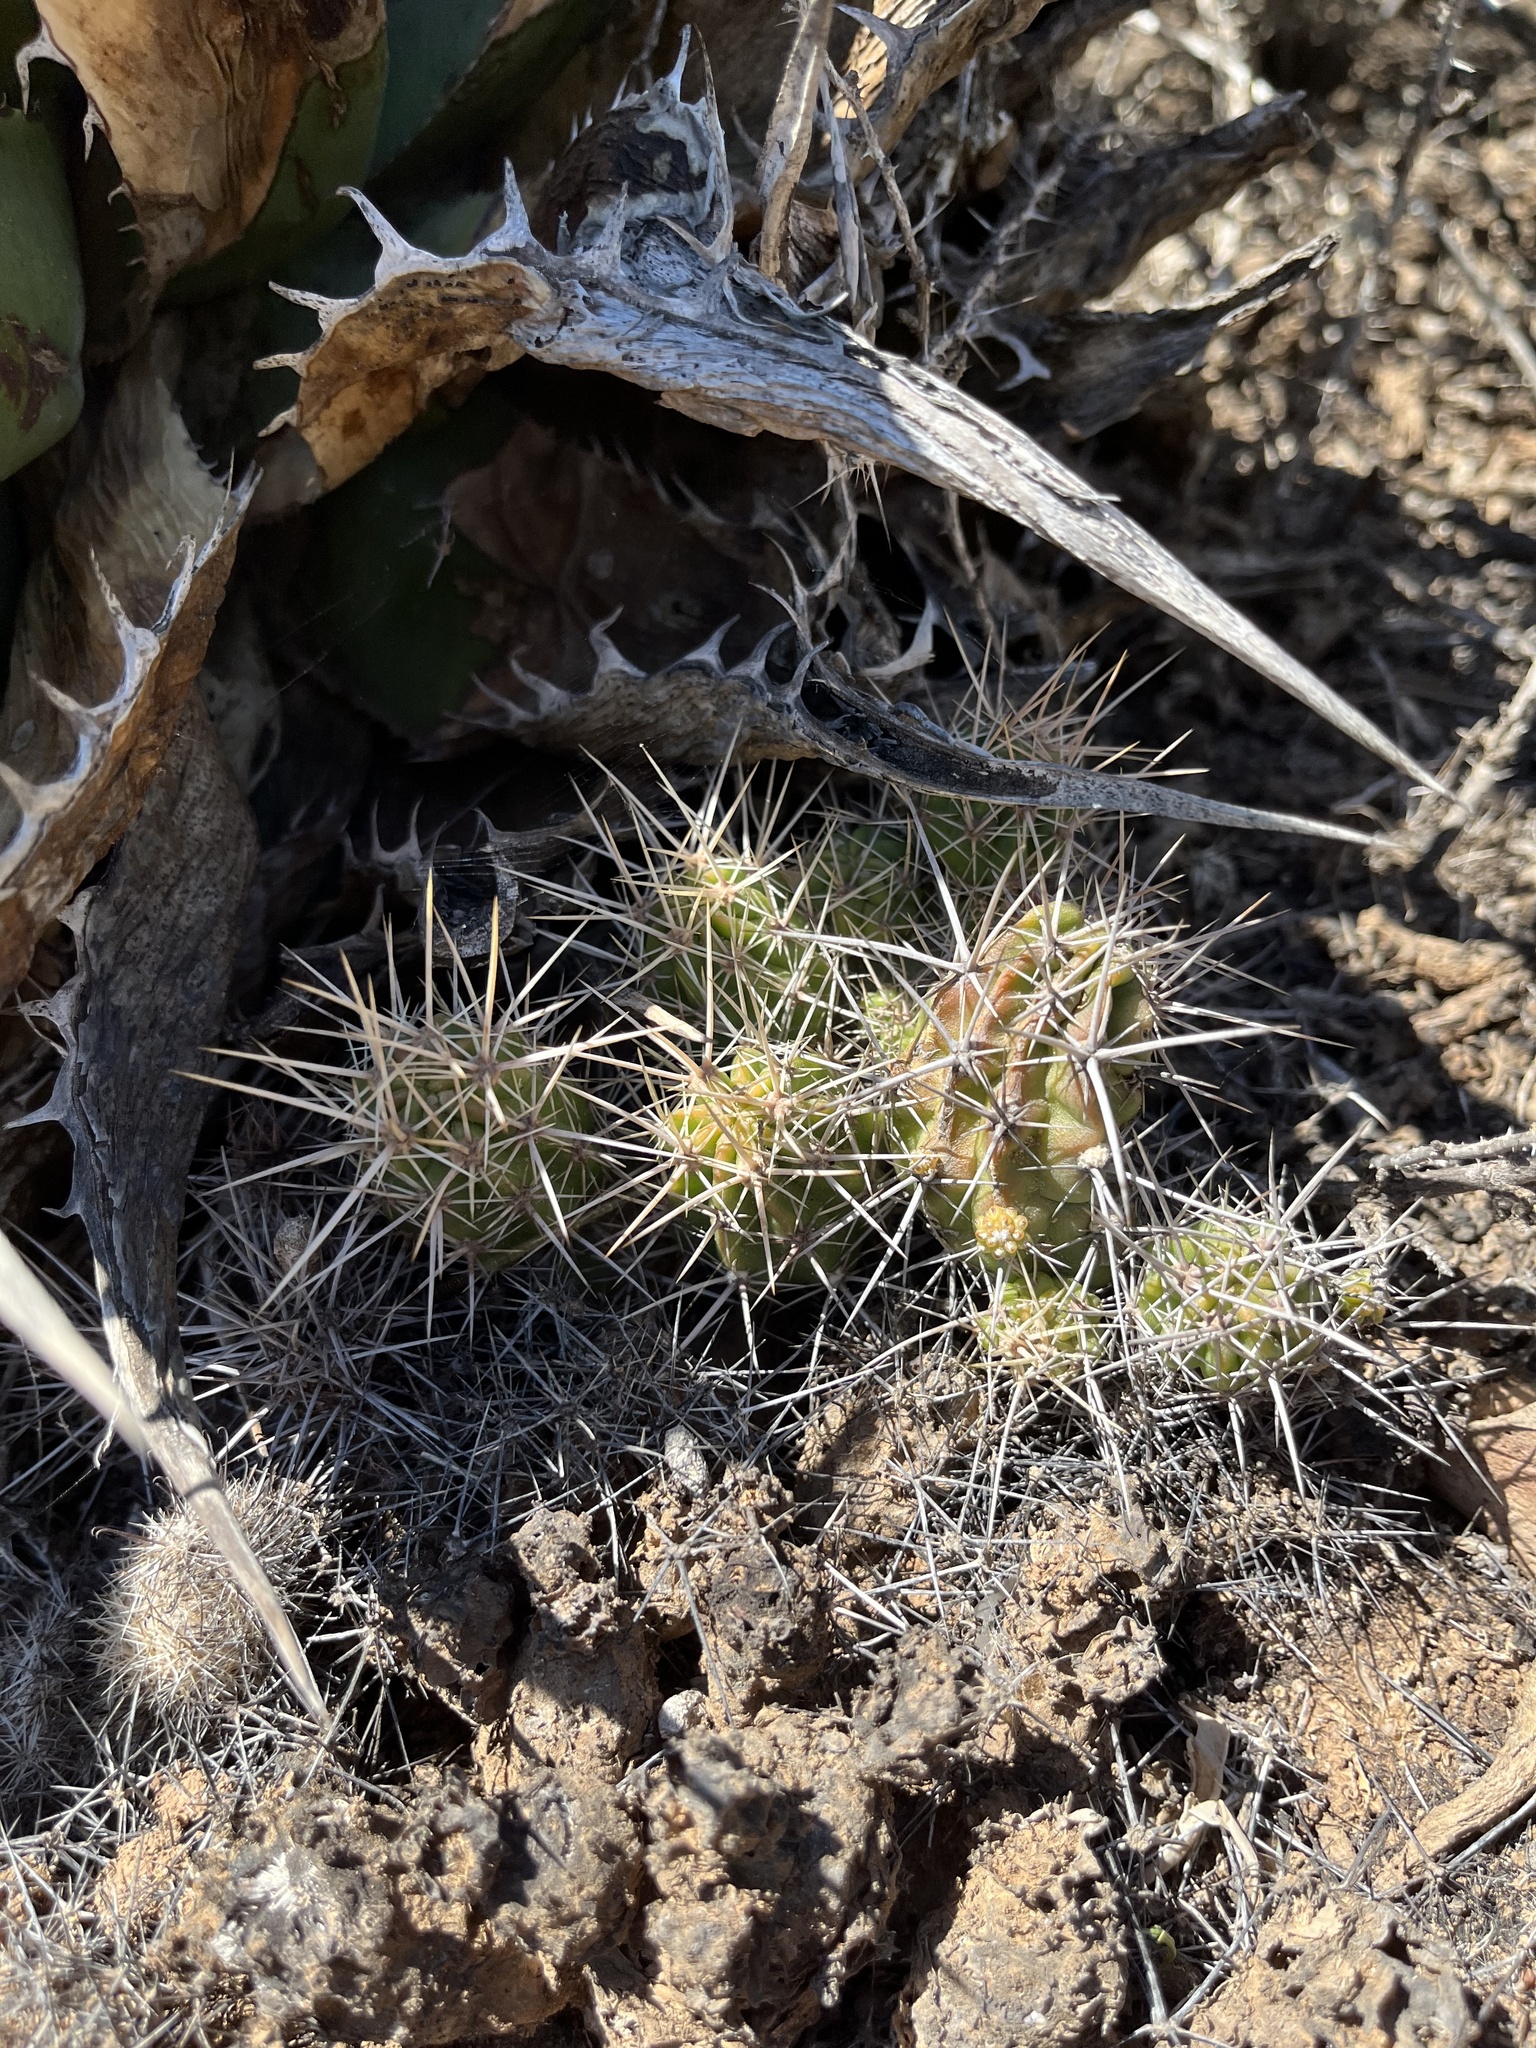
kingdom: Plantae
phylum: Tracheophyta
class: Magnoliopsida
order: Caryophyllales
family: Cactaceae
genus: Echinocereus
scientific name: Echinocereus maritimus
